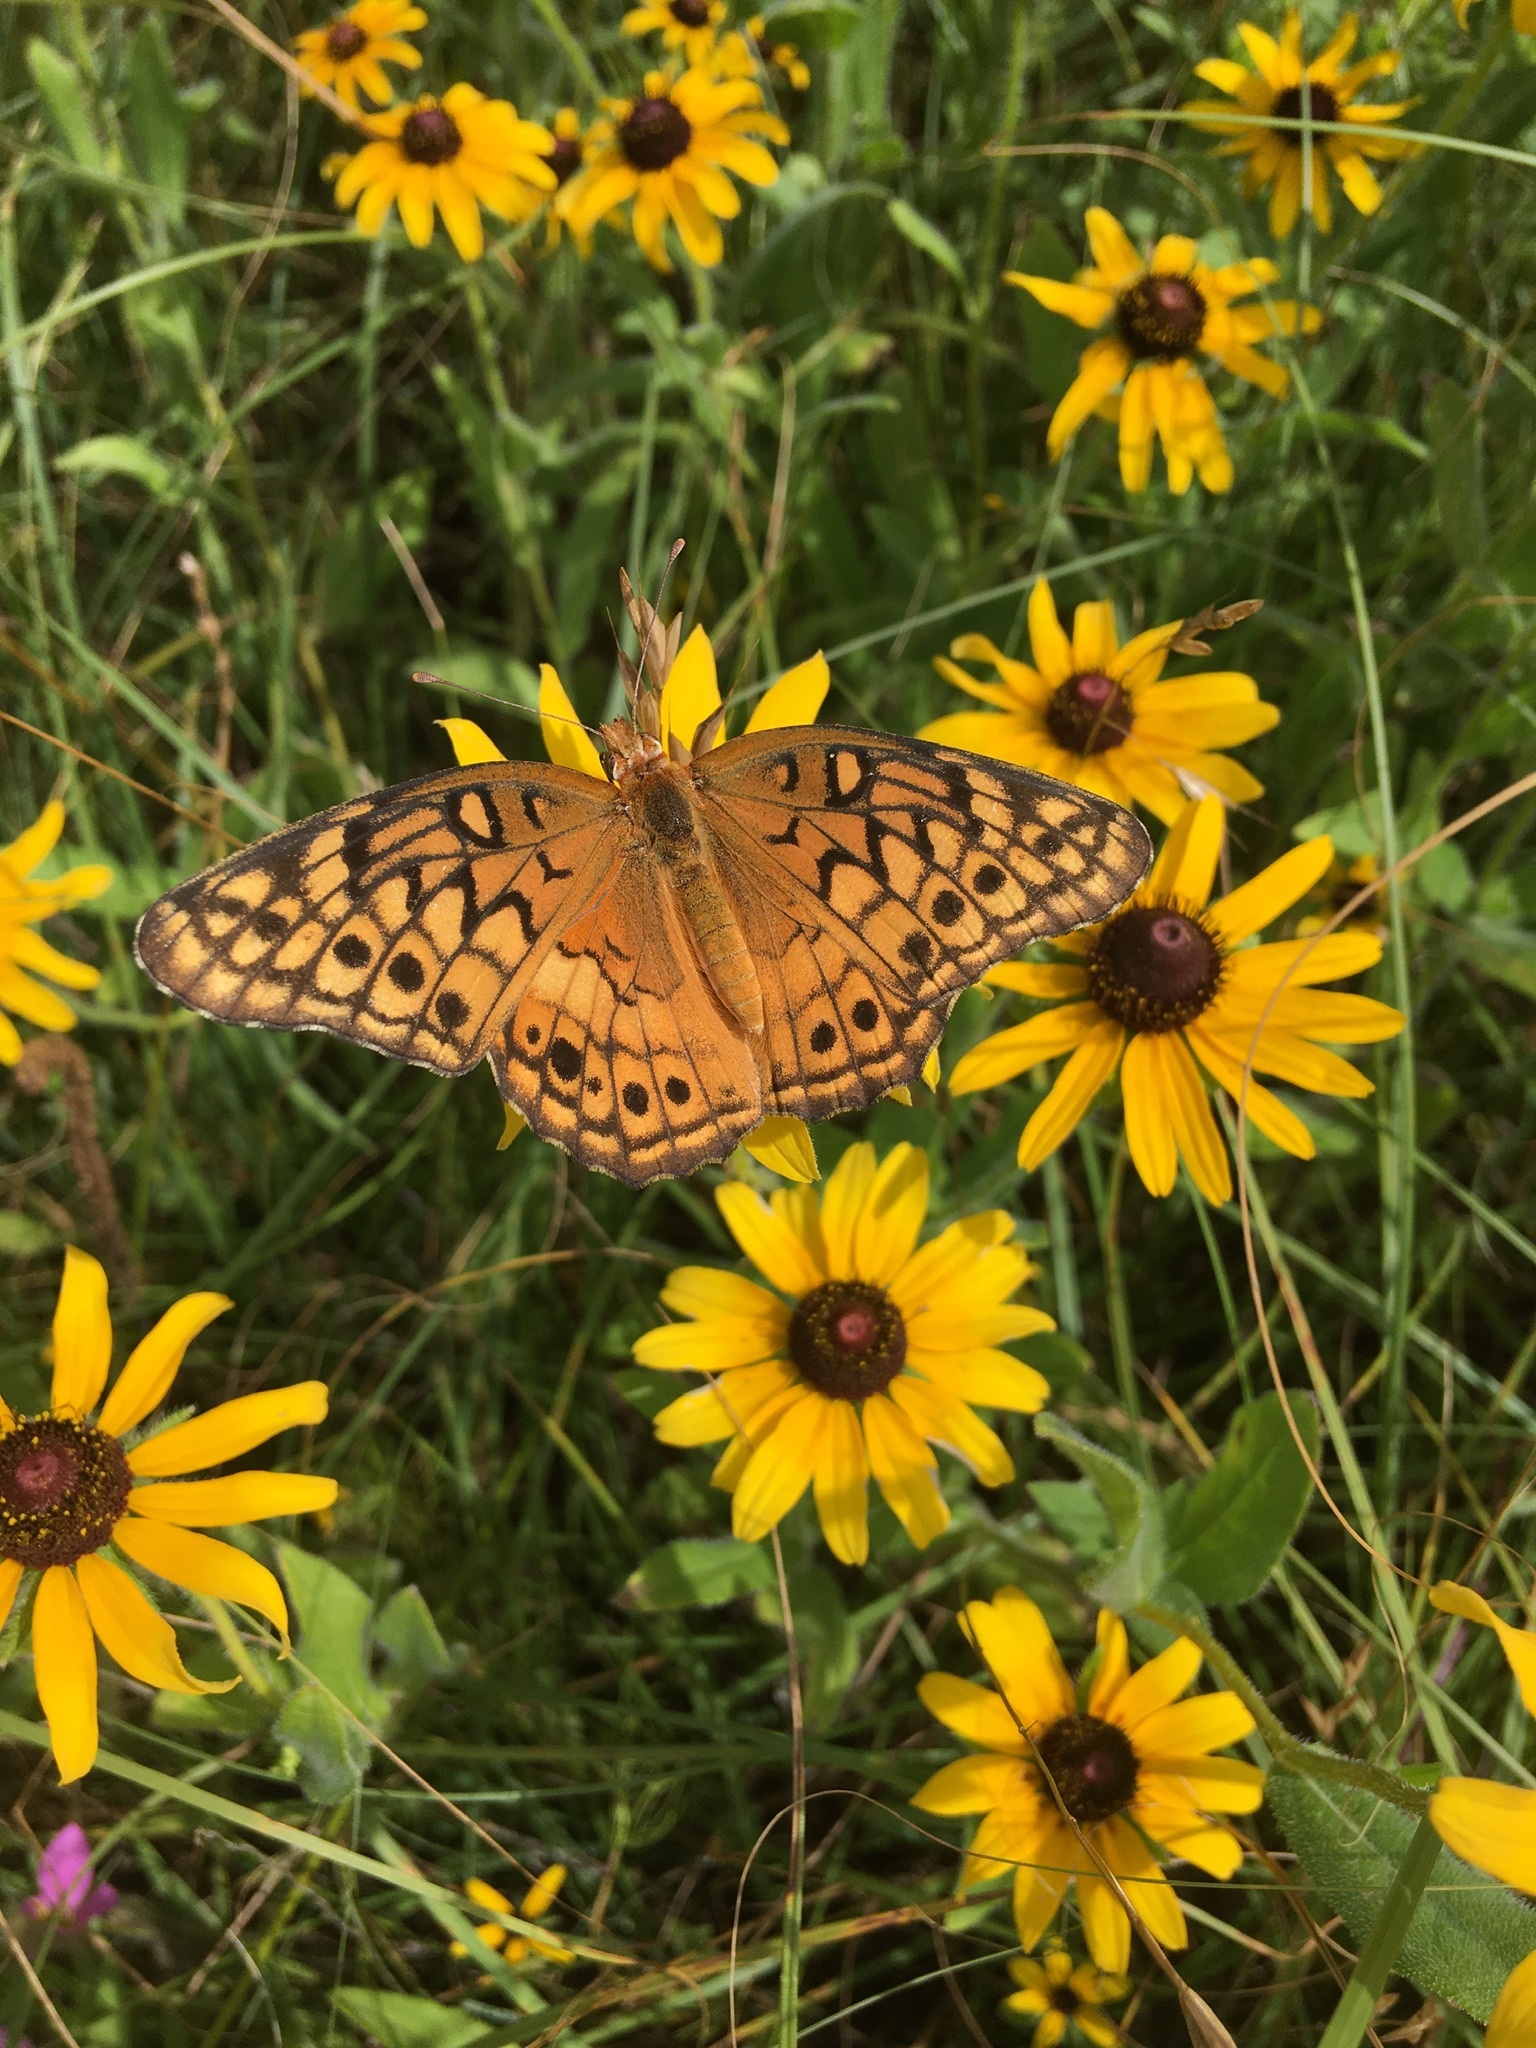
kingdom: Animalia
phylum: Arthropoda
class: Insecta
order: Lepidoptera
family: Nymphalidae
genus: Euptoieta
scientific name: Euptoieta claudia
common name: Variegated fritillary
